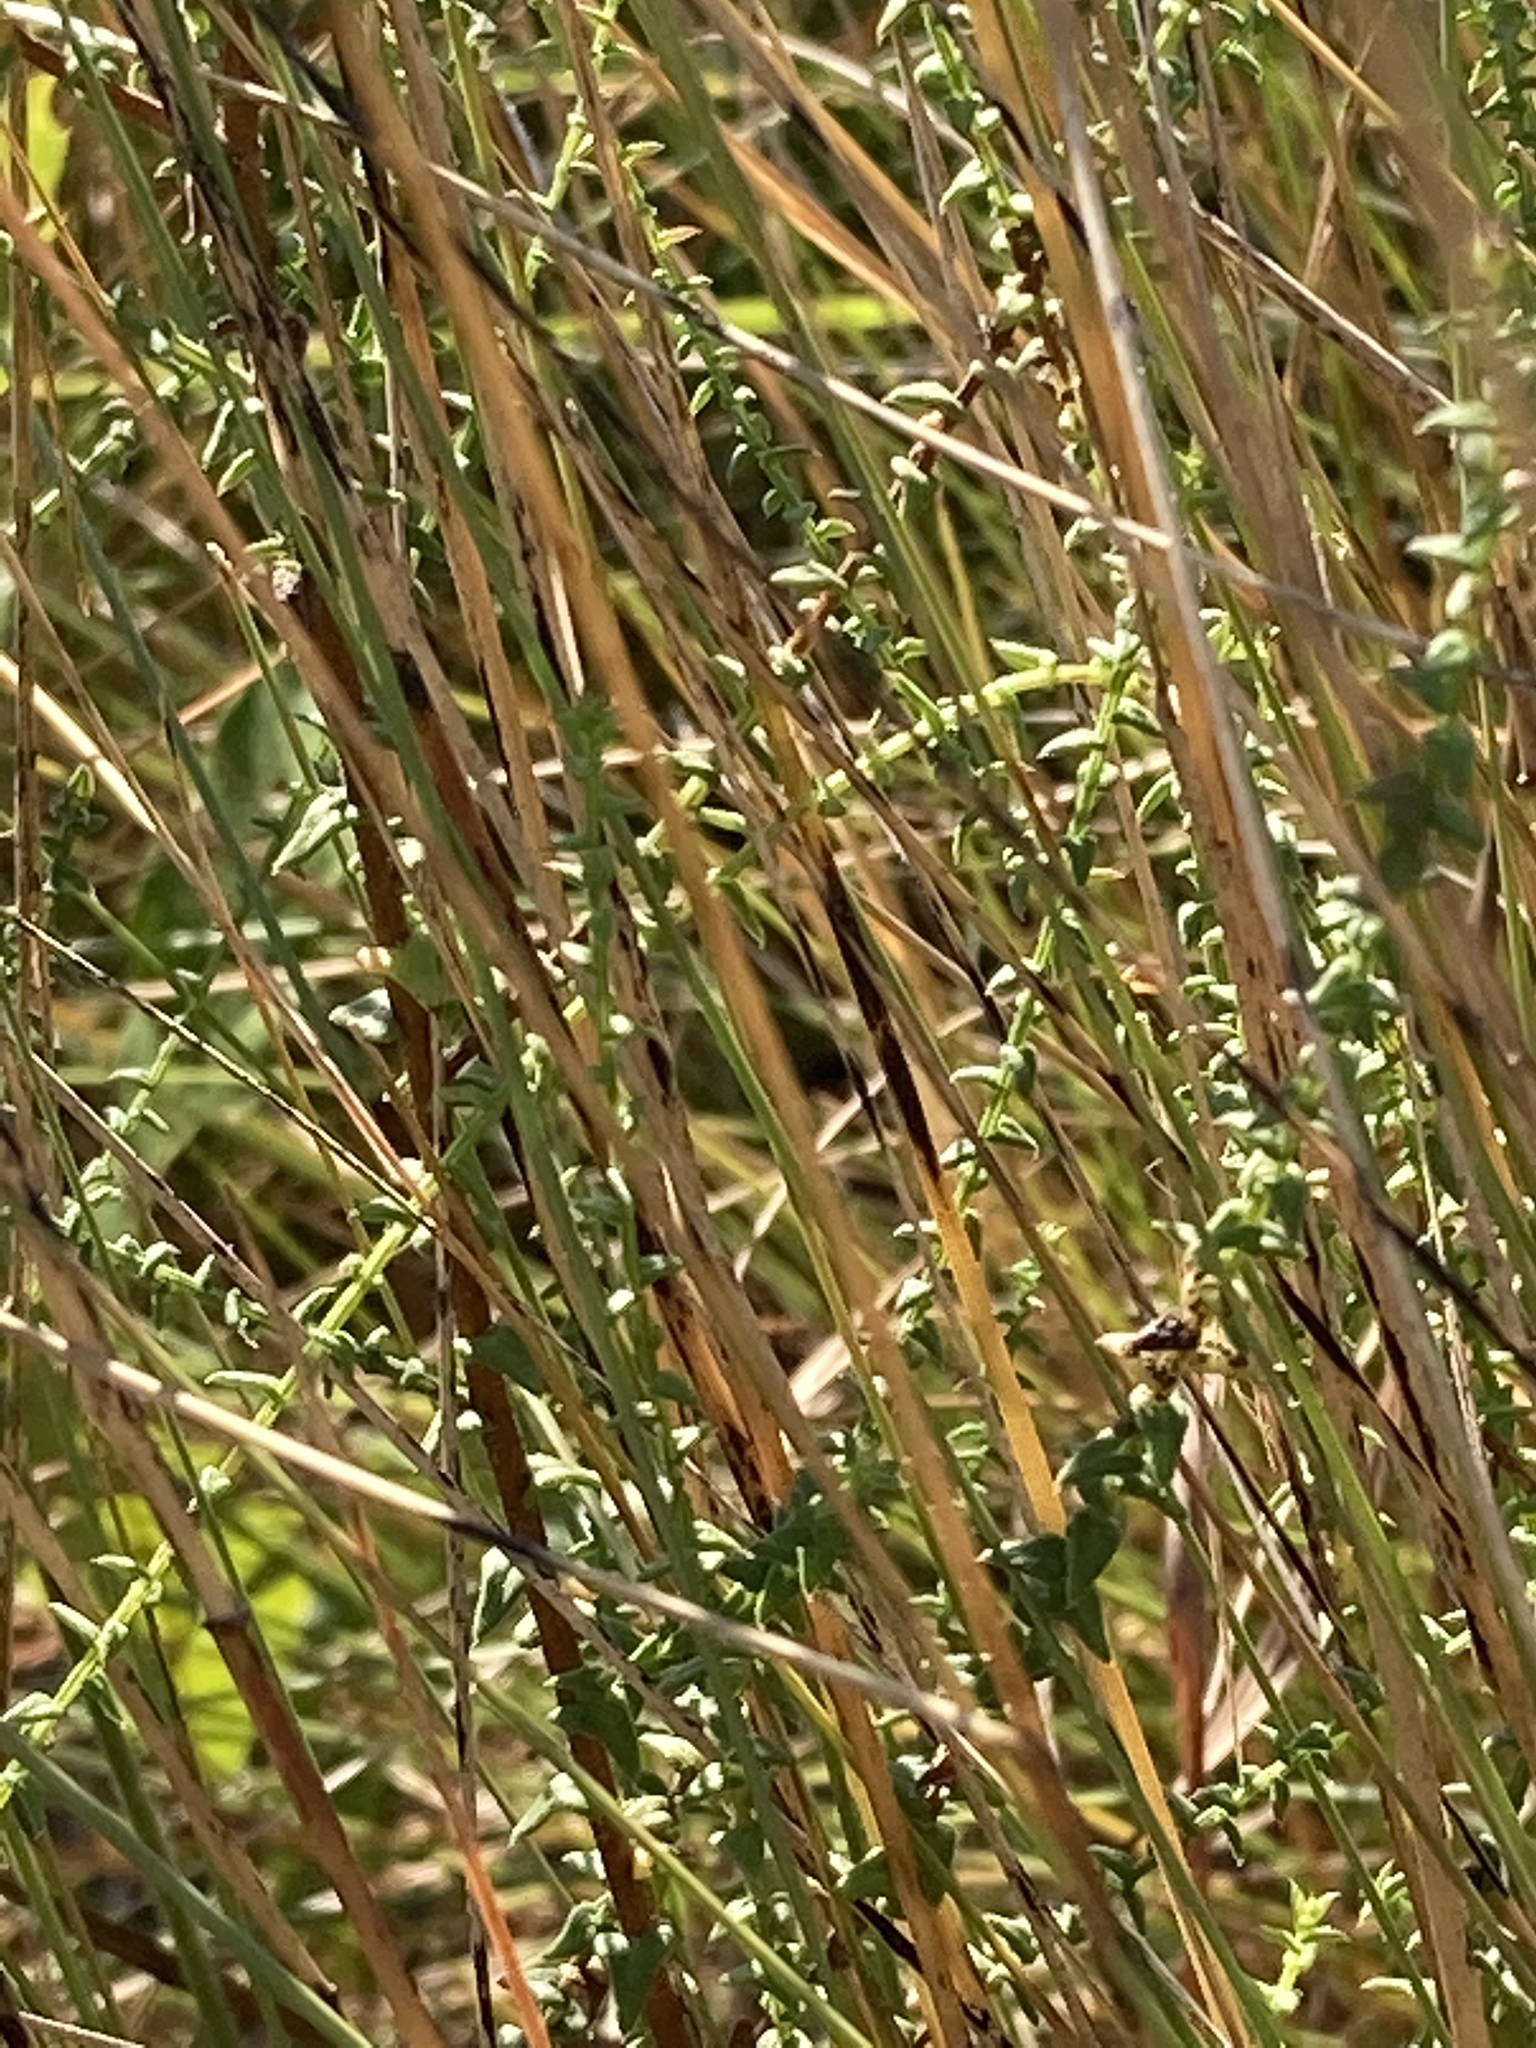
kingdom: Plantae
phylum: Tracheophyta
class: Magnoliopsida
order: Asterales
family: Asteraceae
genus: Symphyotrichum
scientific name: Symphyotrichum walteri
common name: Walter's aster
